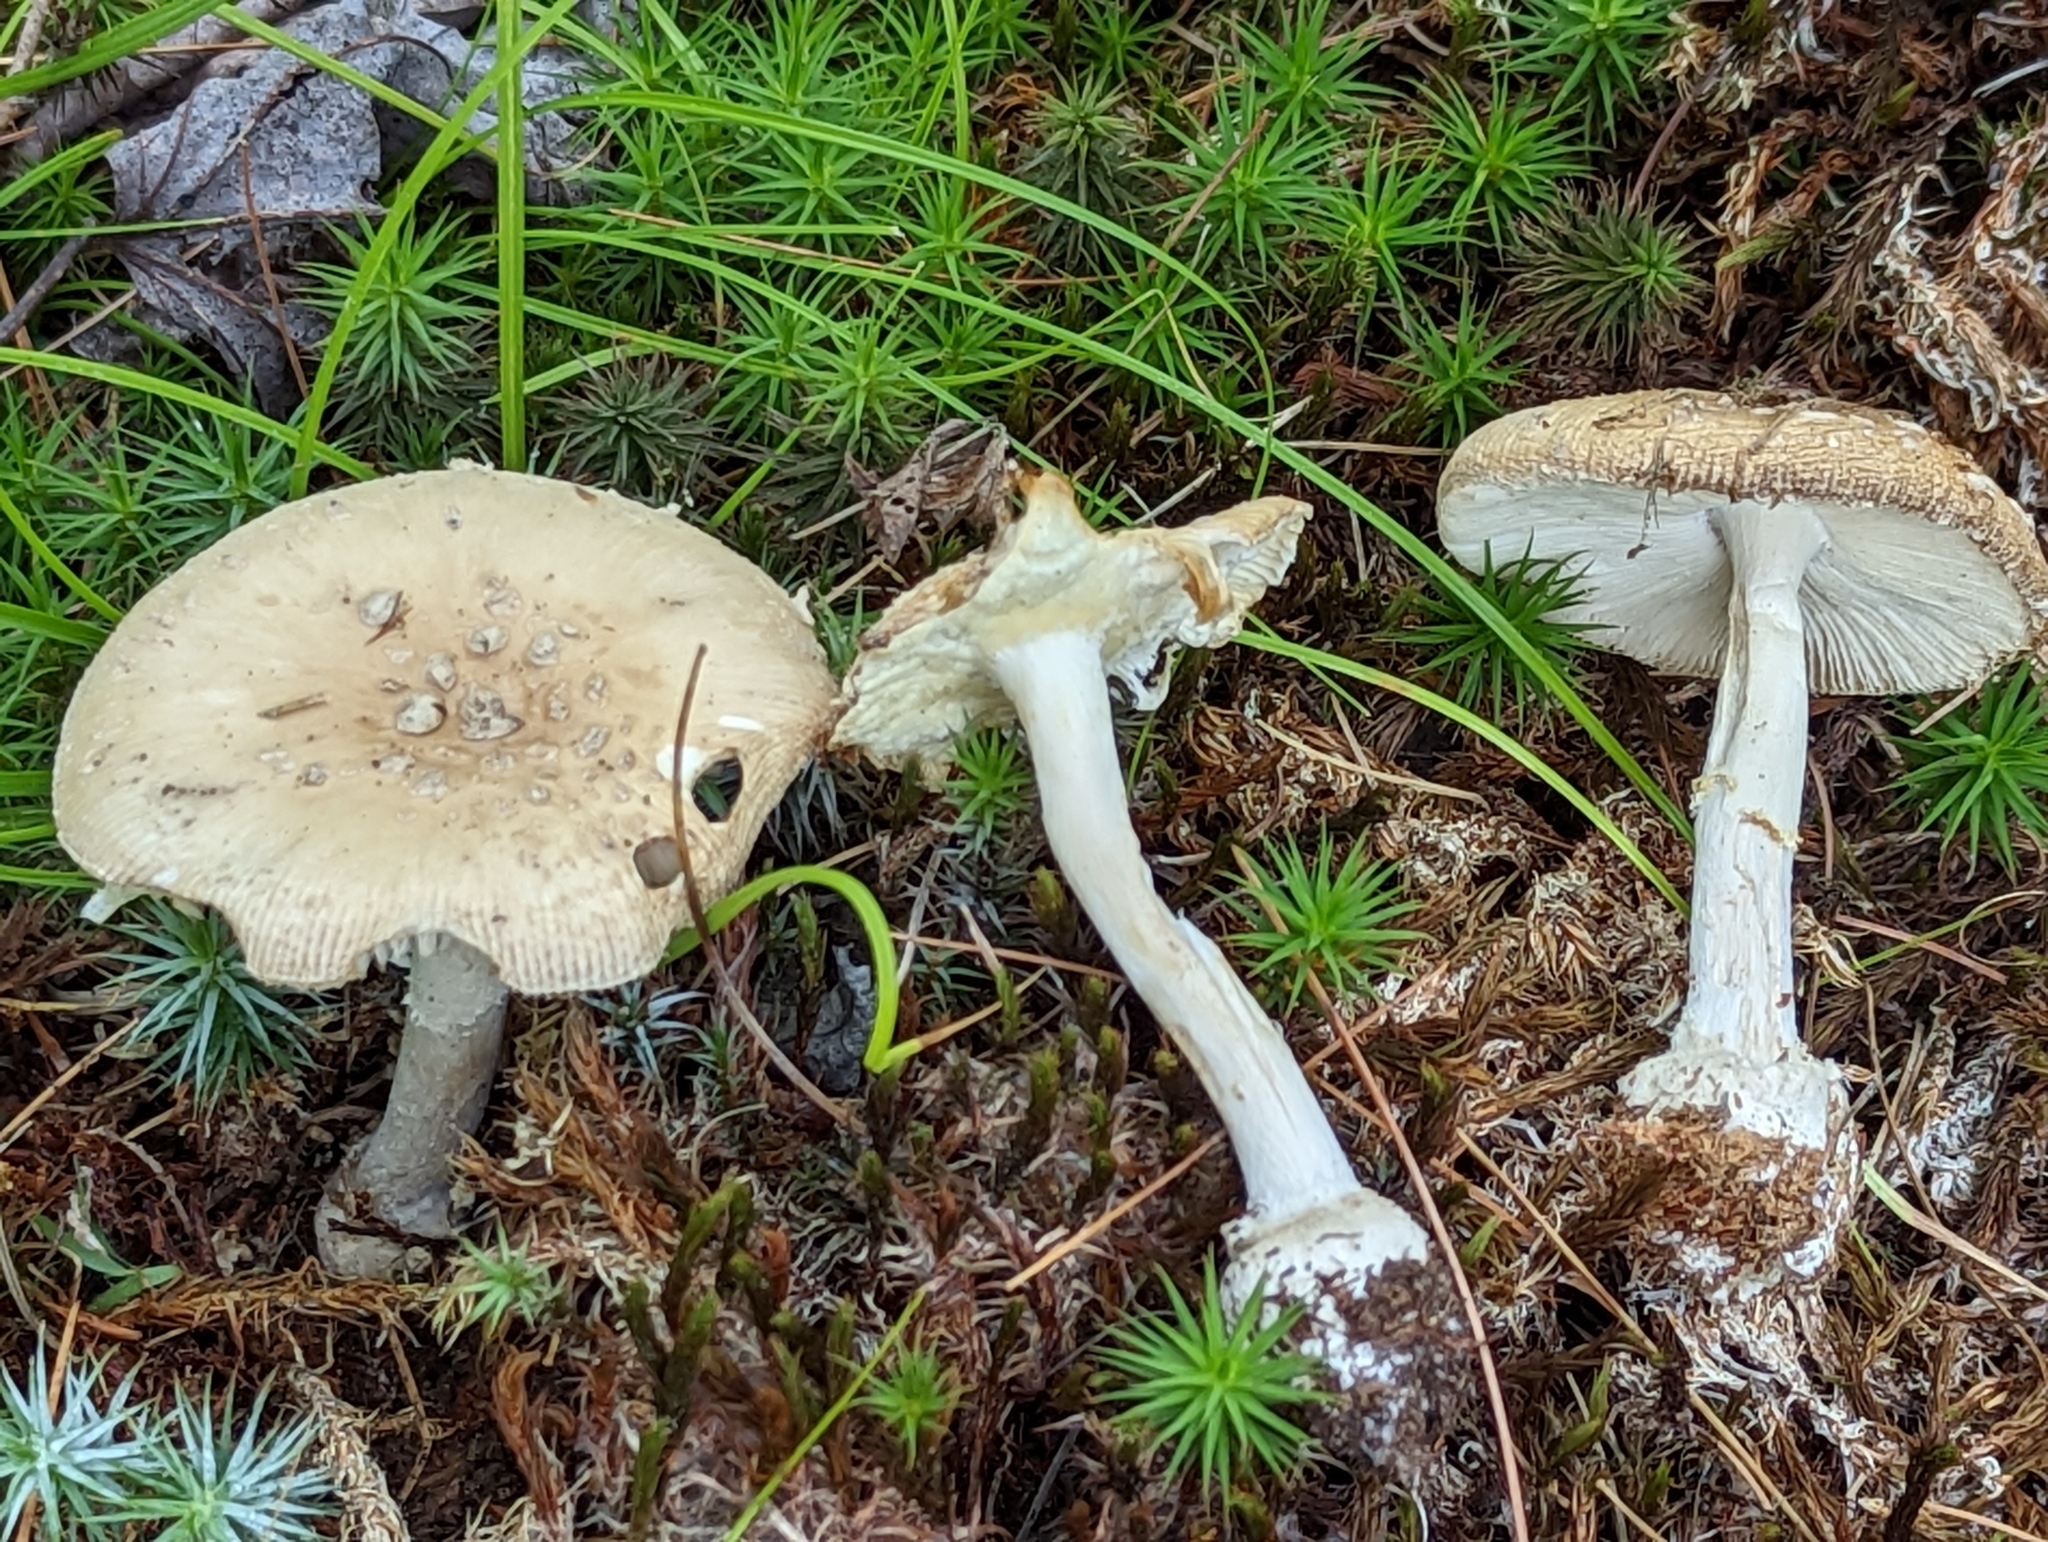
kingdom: Fungi
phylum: Basidiomycota
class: Agaricomycetes
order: Agaricales
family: Amanitaceae
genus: Amanita
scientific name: Amanita crenulata
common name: Poison champagne amanita
